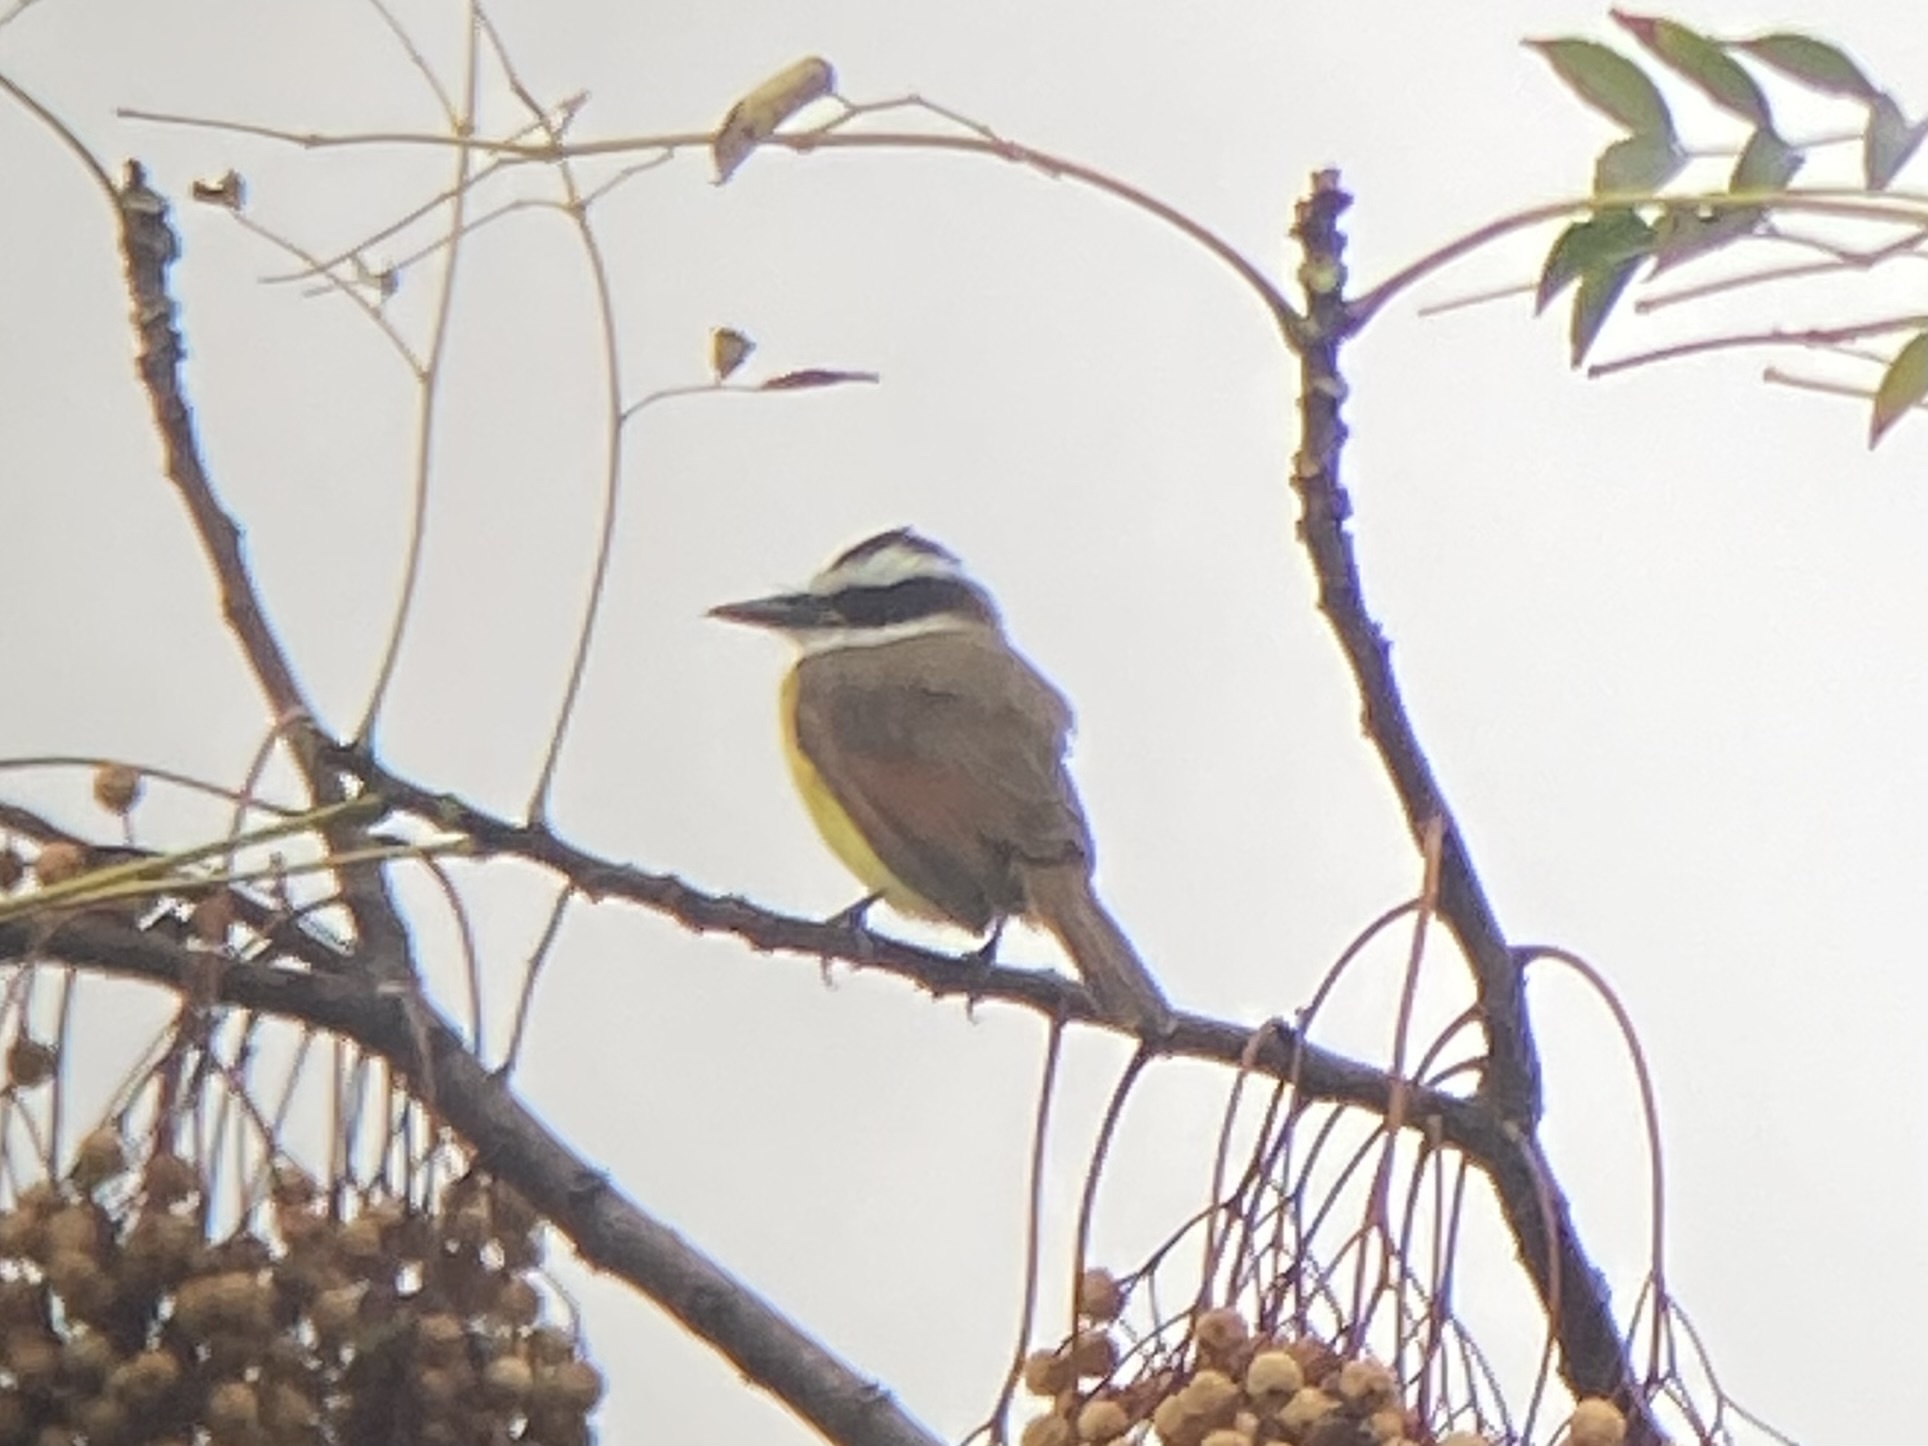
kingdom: Animalia
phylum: Chordata
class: Aves
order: Passeriformes
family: Tyrannidae
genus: Pitangus
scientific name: Pitangus sulphuratus
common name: Great kiskadee
